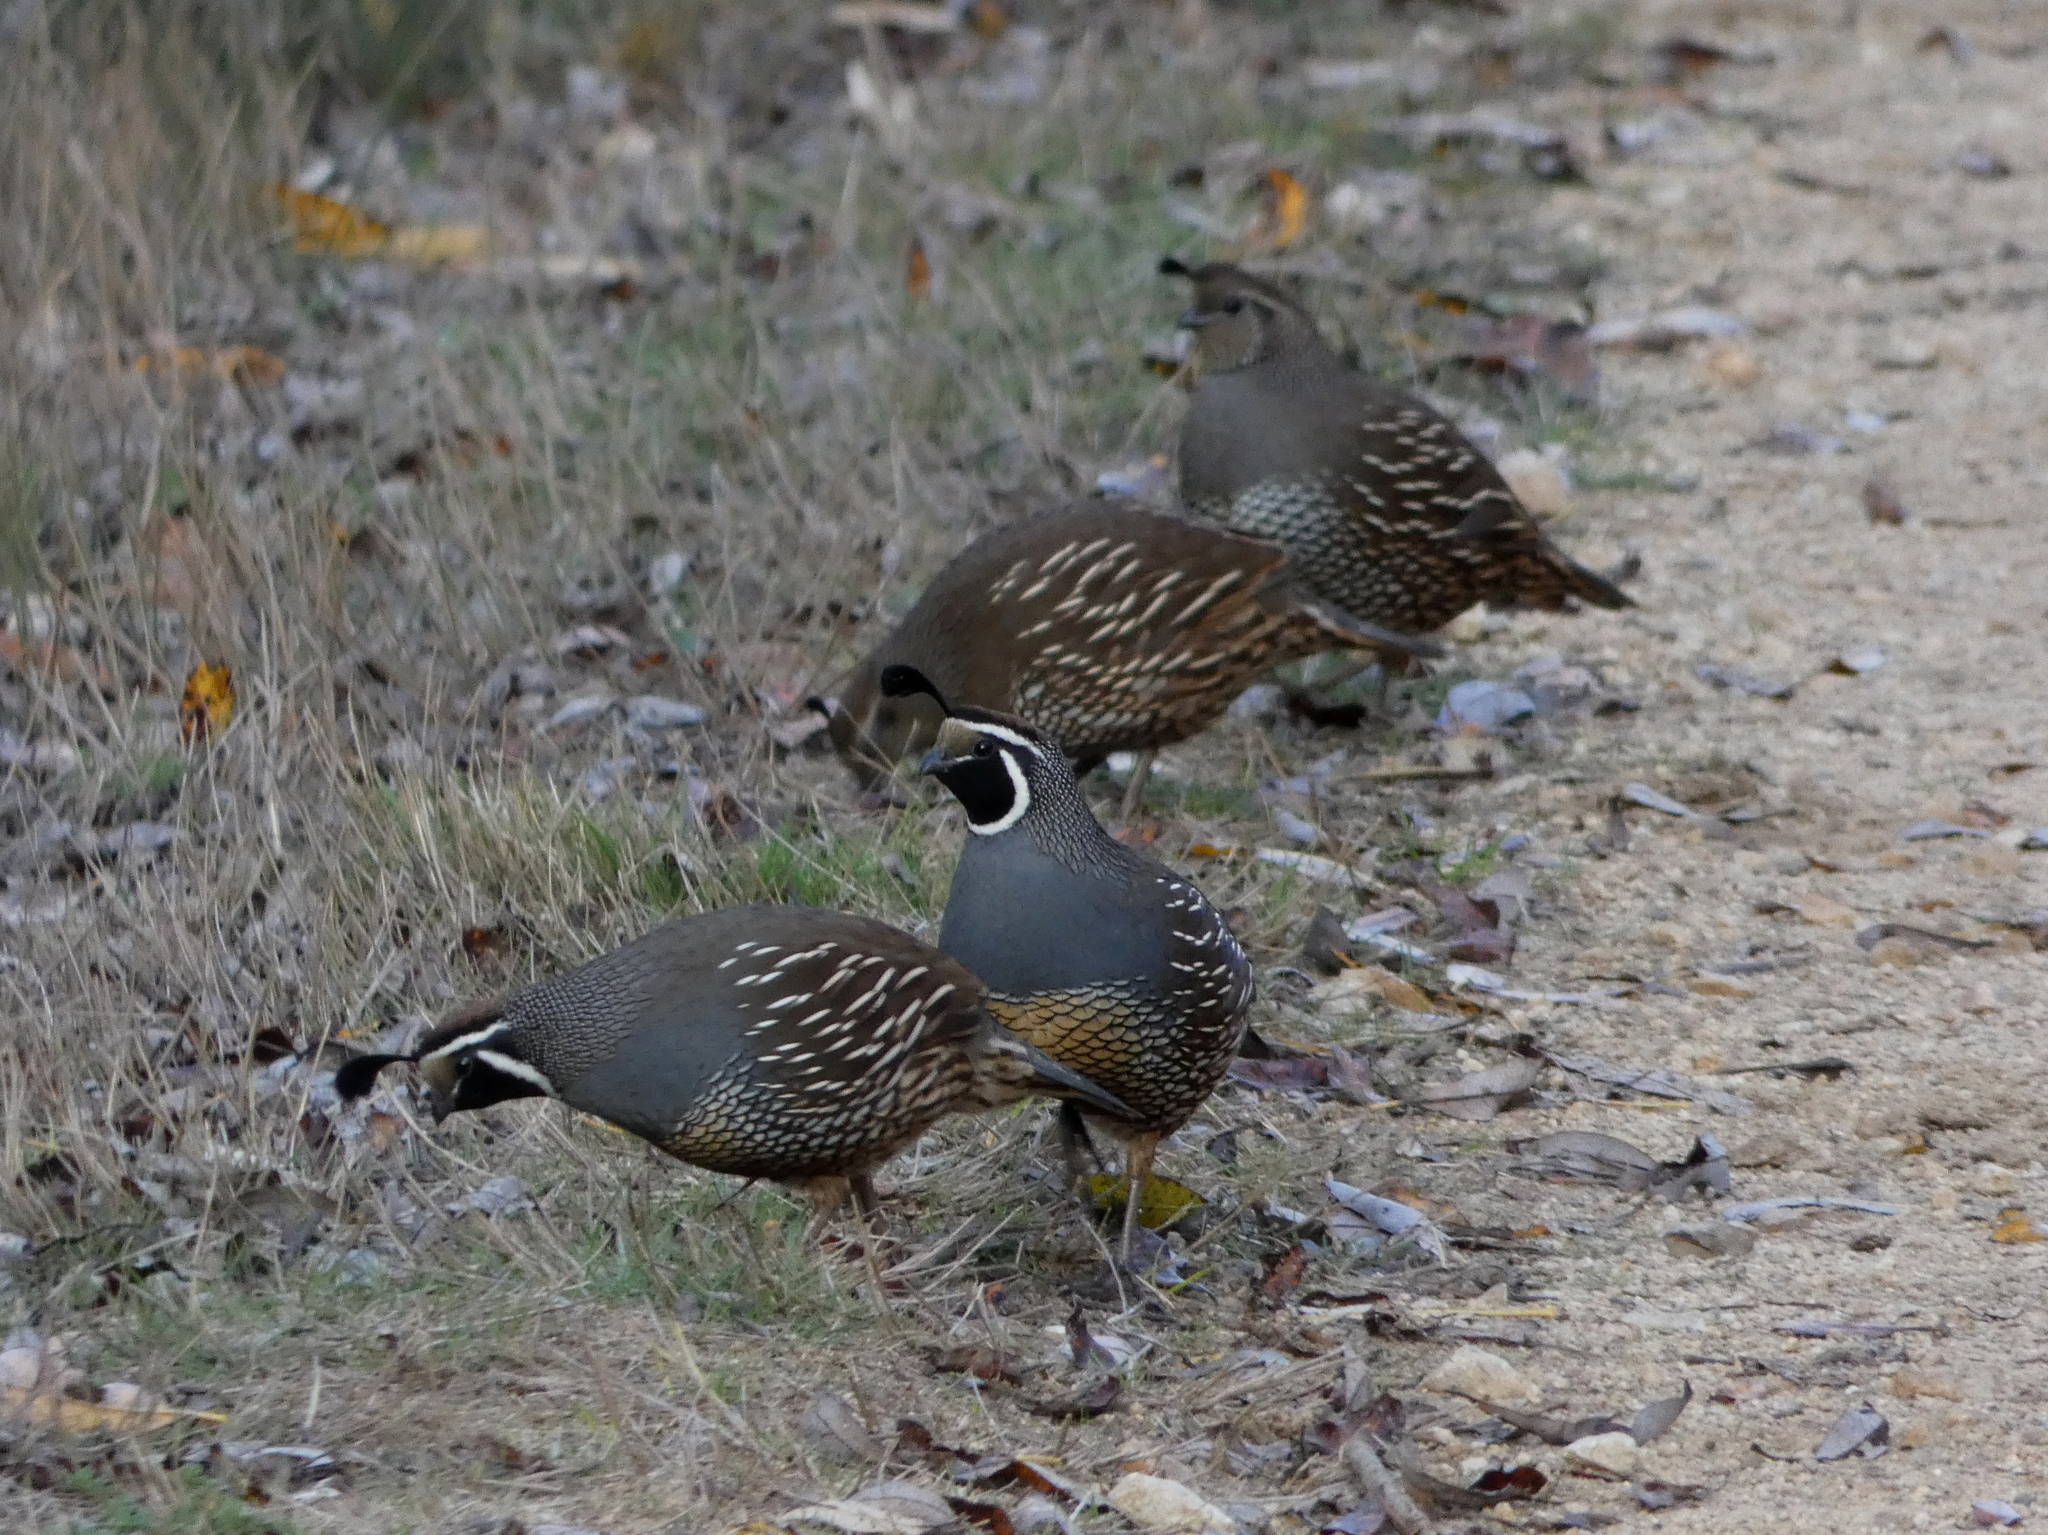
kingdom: Animalia
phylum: Chordata
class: Aves
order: Galliformes
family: Odontophoridae
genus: Callipepla
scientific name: Callipepla californica
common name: California quail
